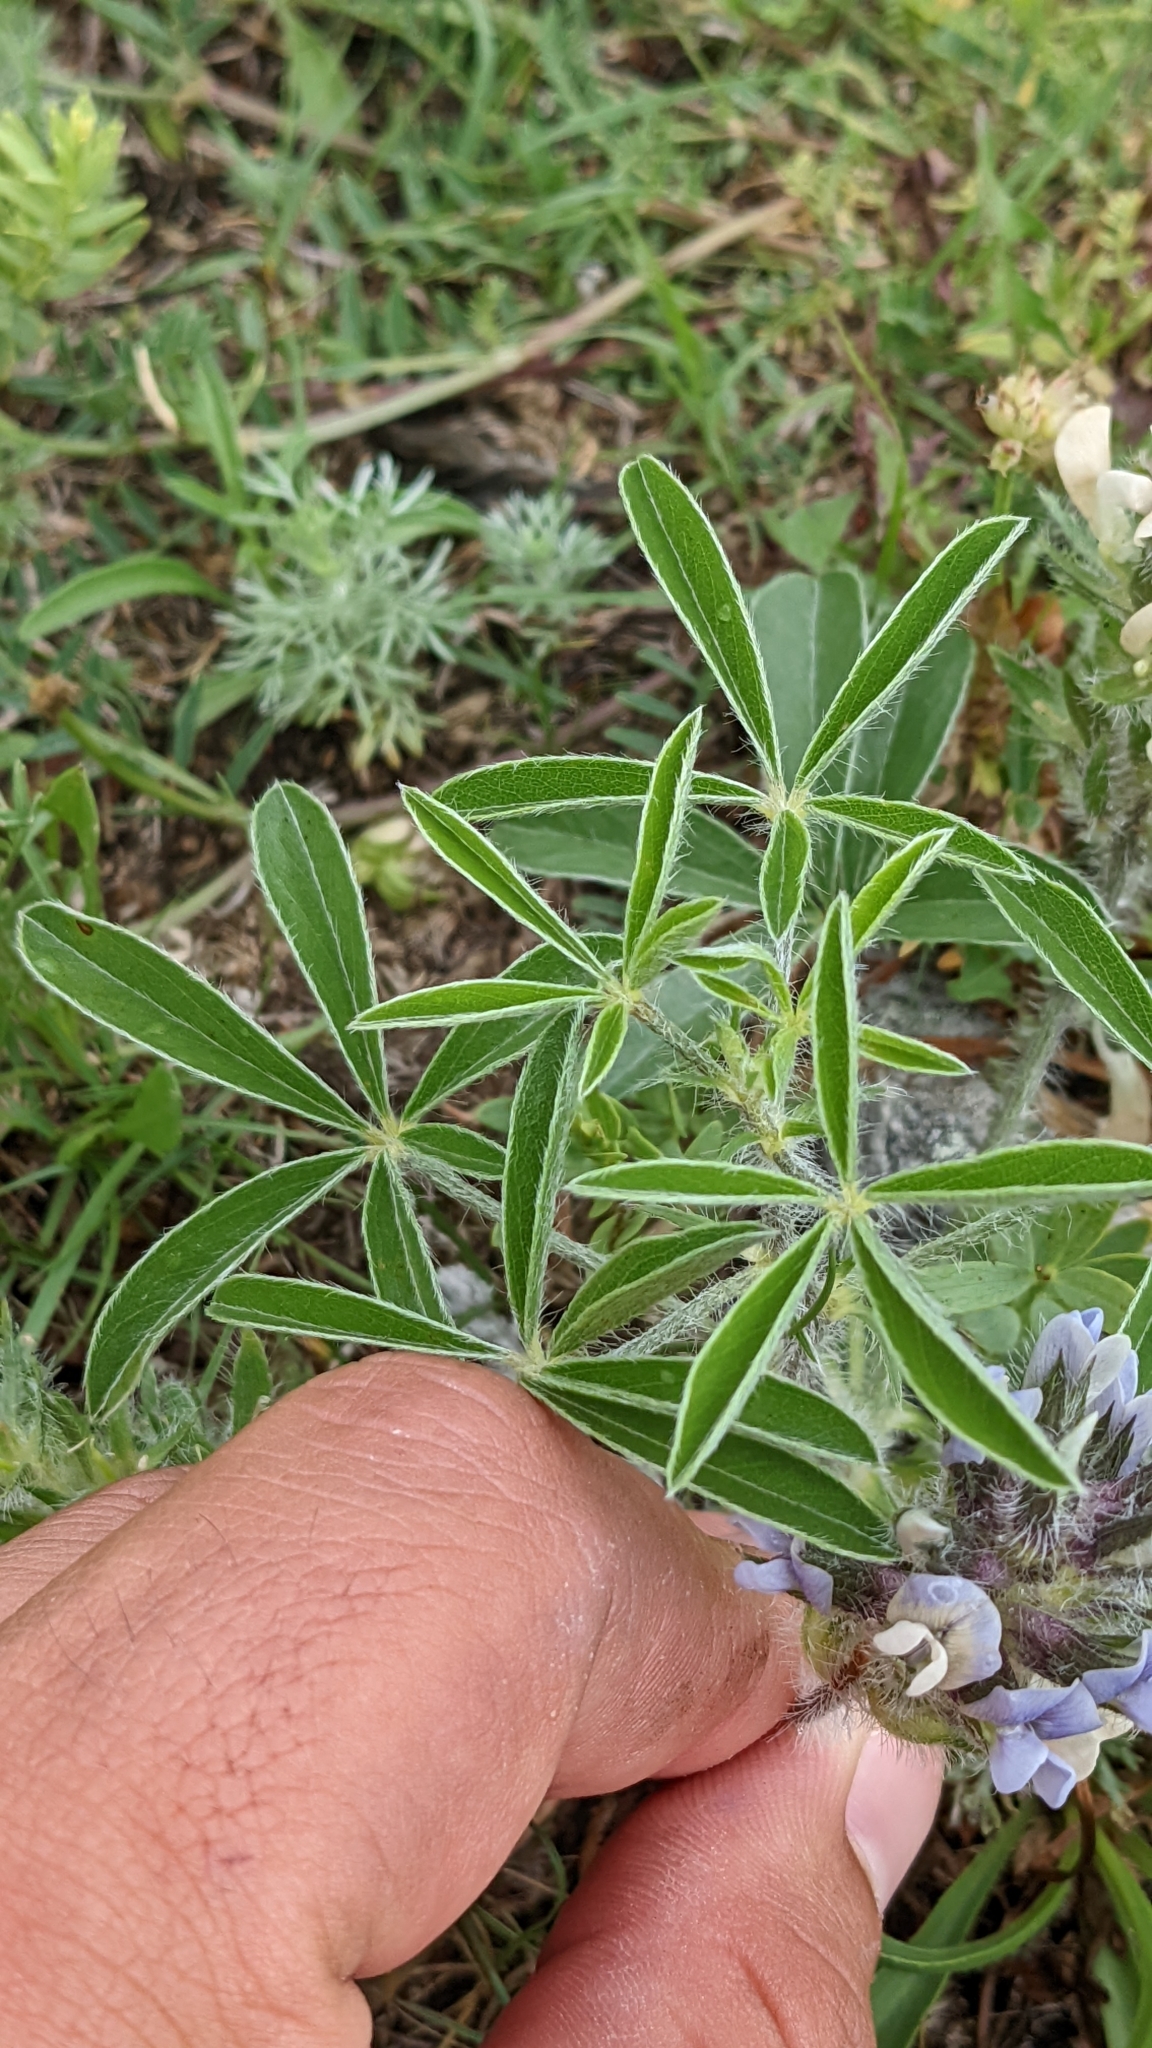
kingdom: Plantae
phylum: Tracheophyta
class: Magnoliopsida
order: Fabales
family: Fabaceae
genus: Pediomelum
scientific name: Pediomelum esculentum
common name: Indian-turnip
